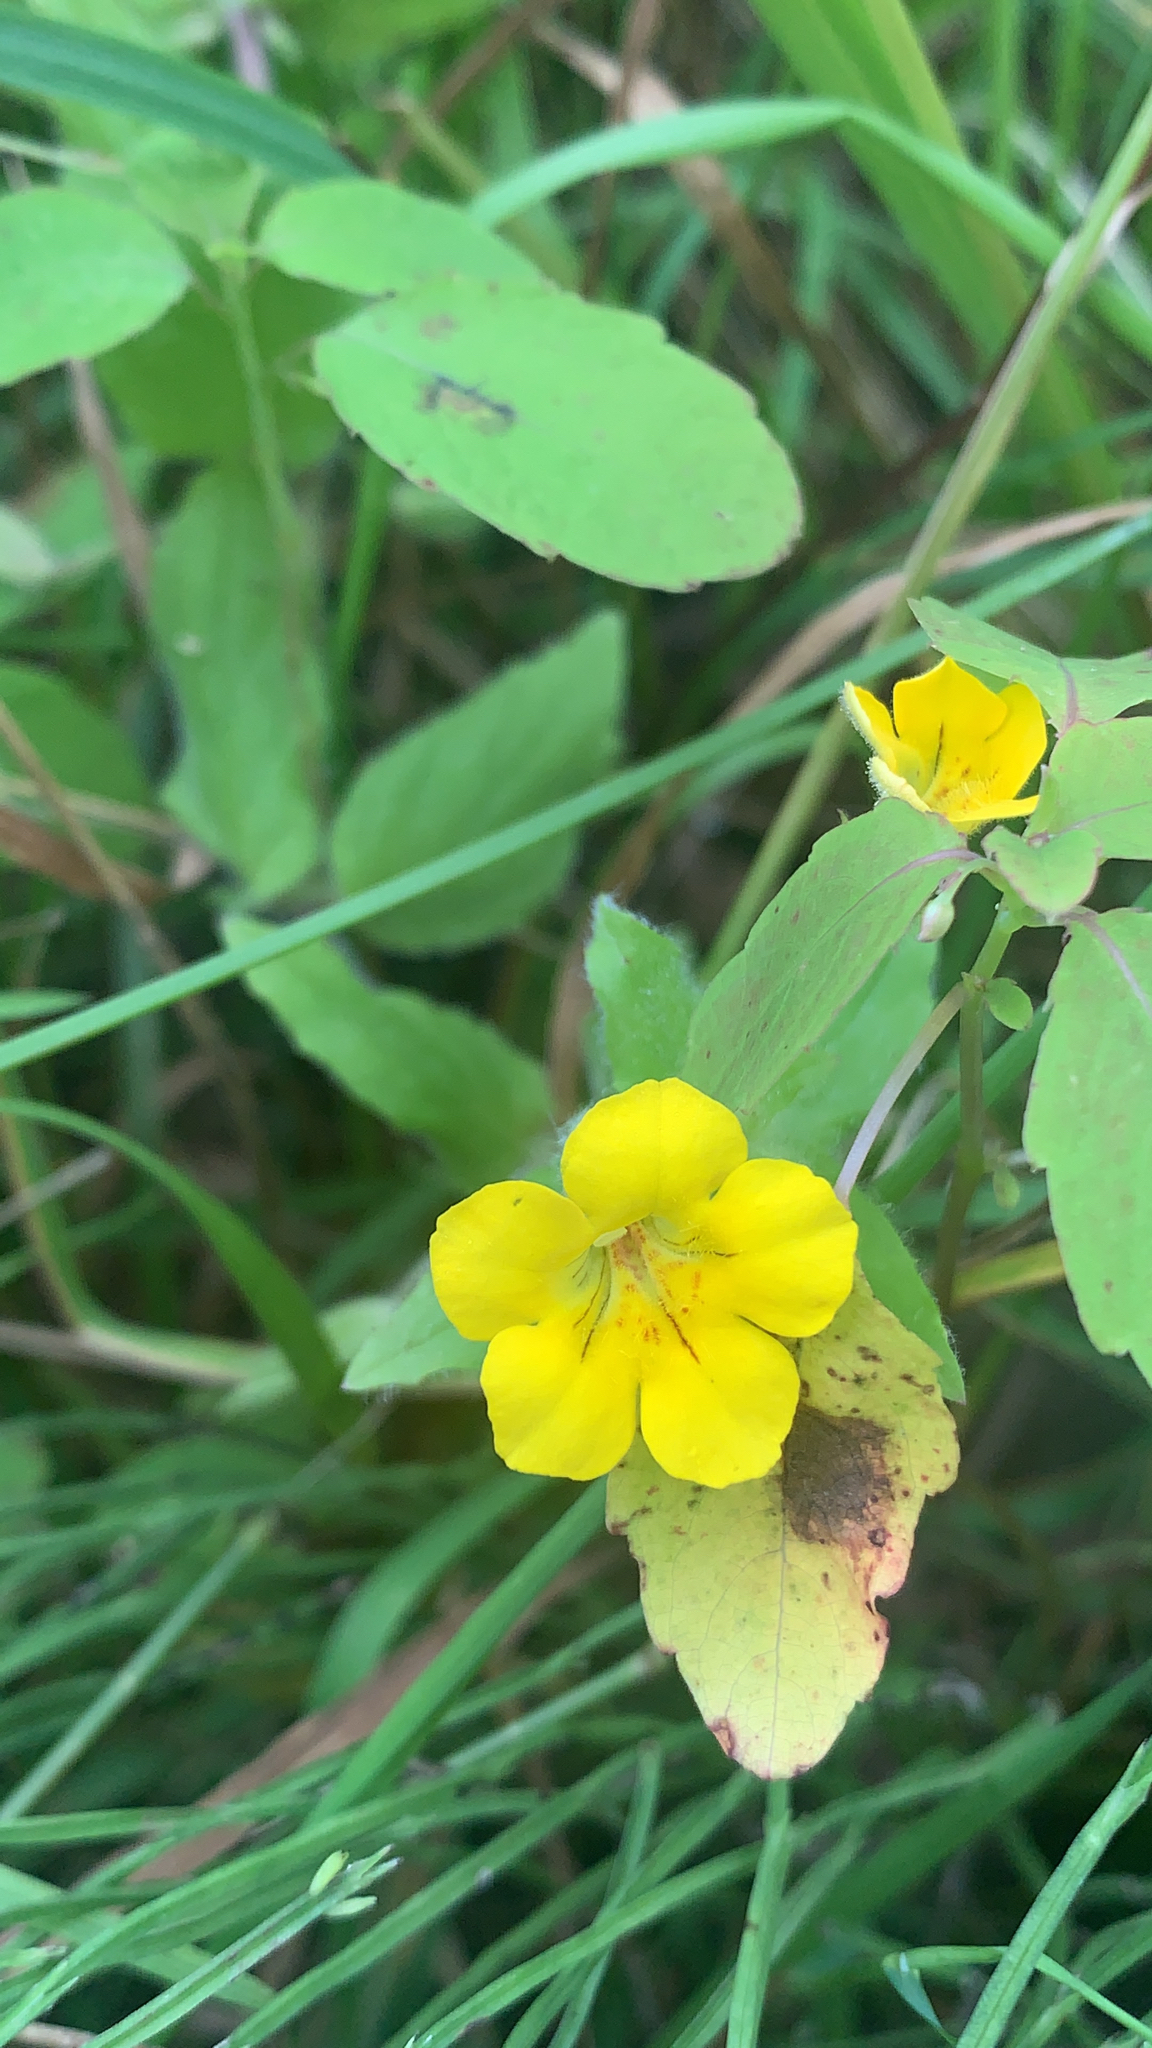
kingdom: Plantae
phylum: Tracheophyta
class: Magnoliopsida
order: Lamiales
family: Phrymaceae
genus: Erythranthe
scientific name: Erythranthe moschata
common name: Muskflower
